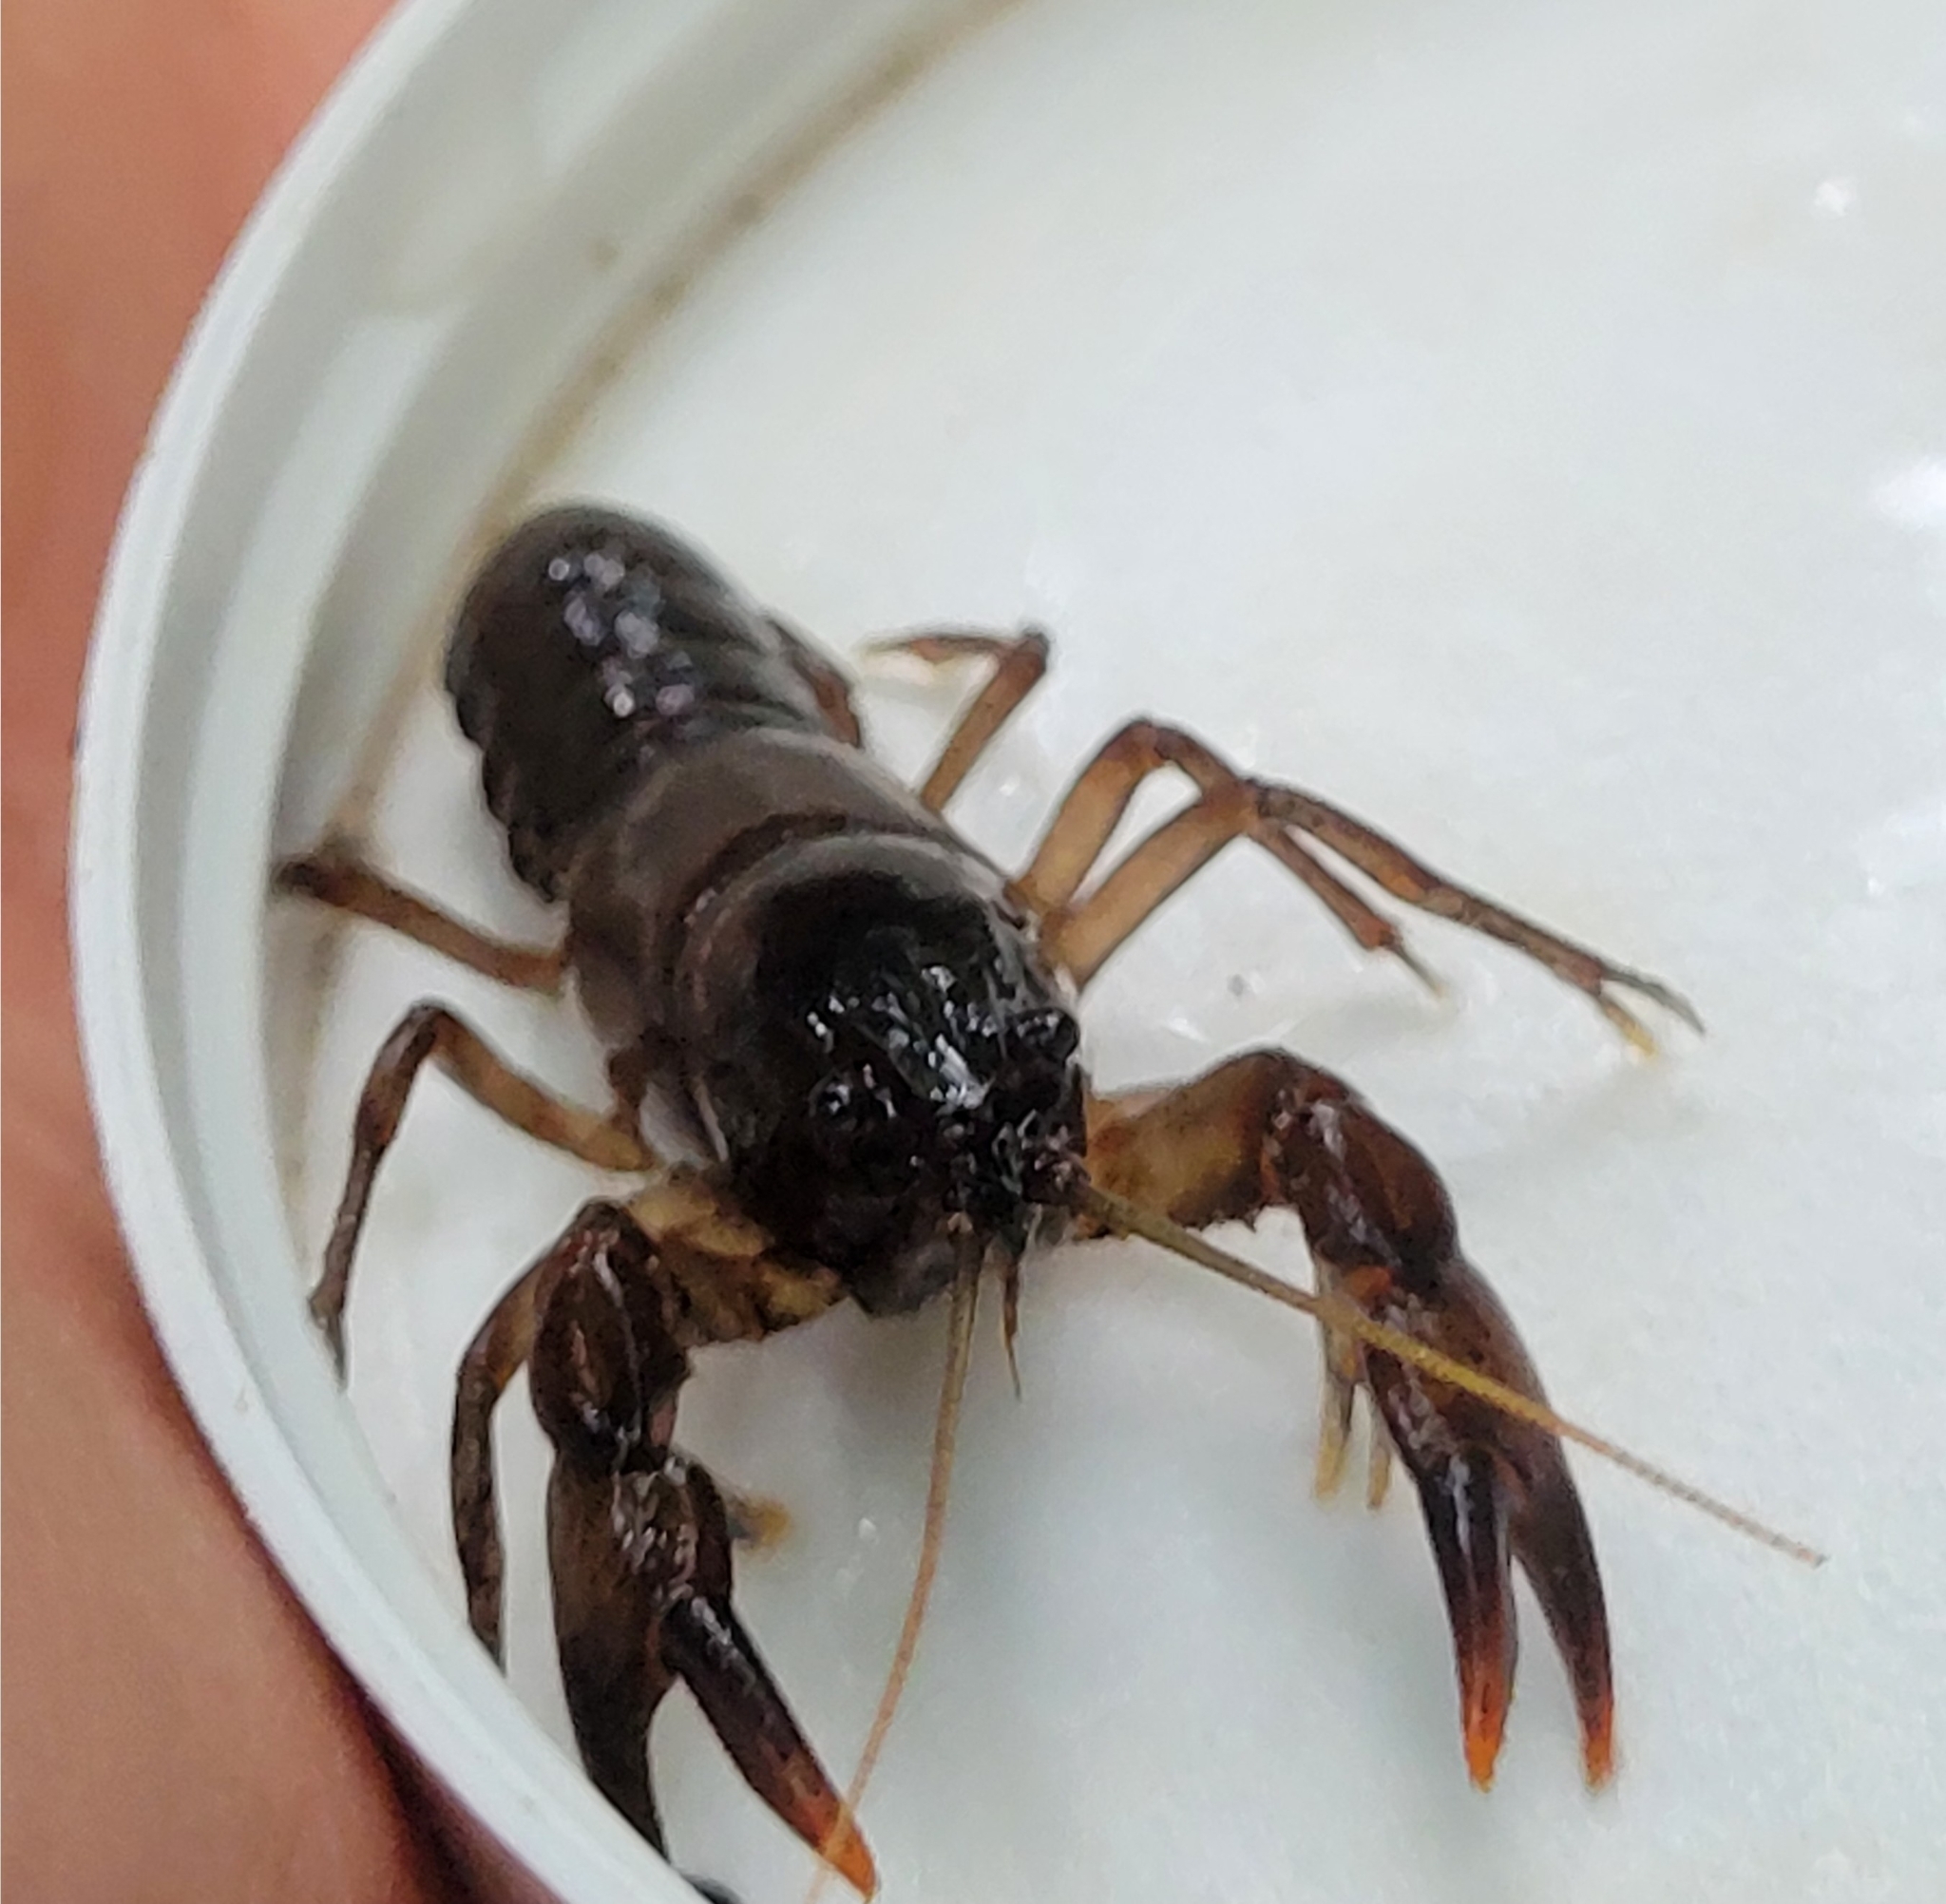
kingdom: Animalia
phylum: Arthropoda
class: Malacostraca
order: Decapoda
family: Cambaridae
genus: Cambarus
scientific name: Cambarus bartonii
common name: Appalachian brook crayfish
